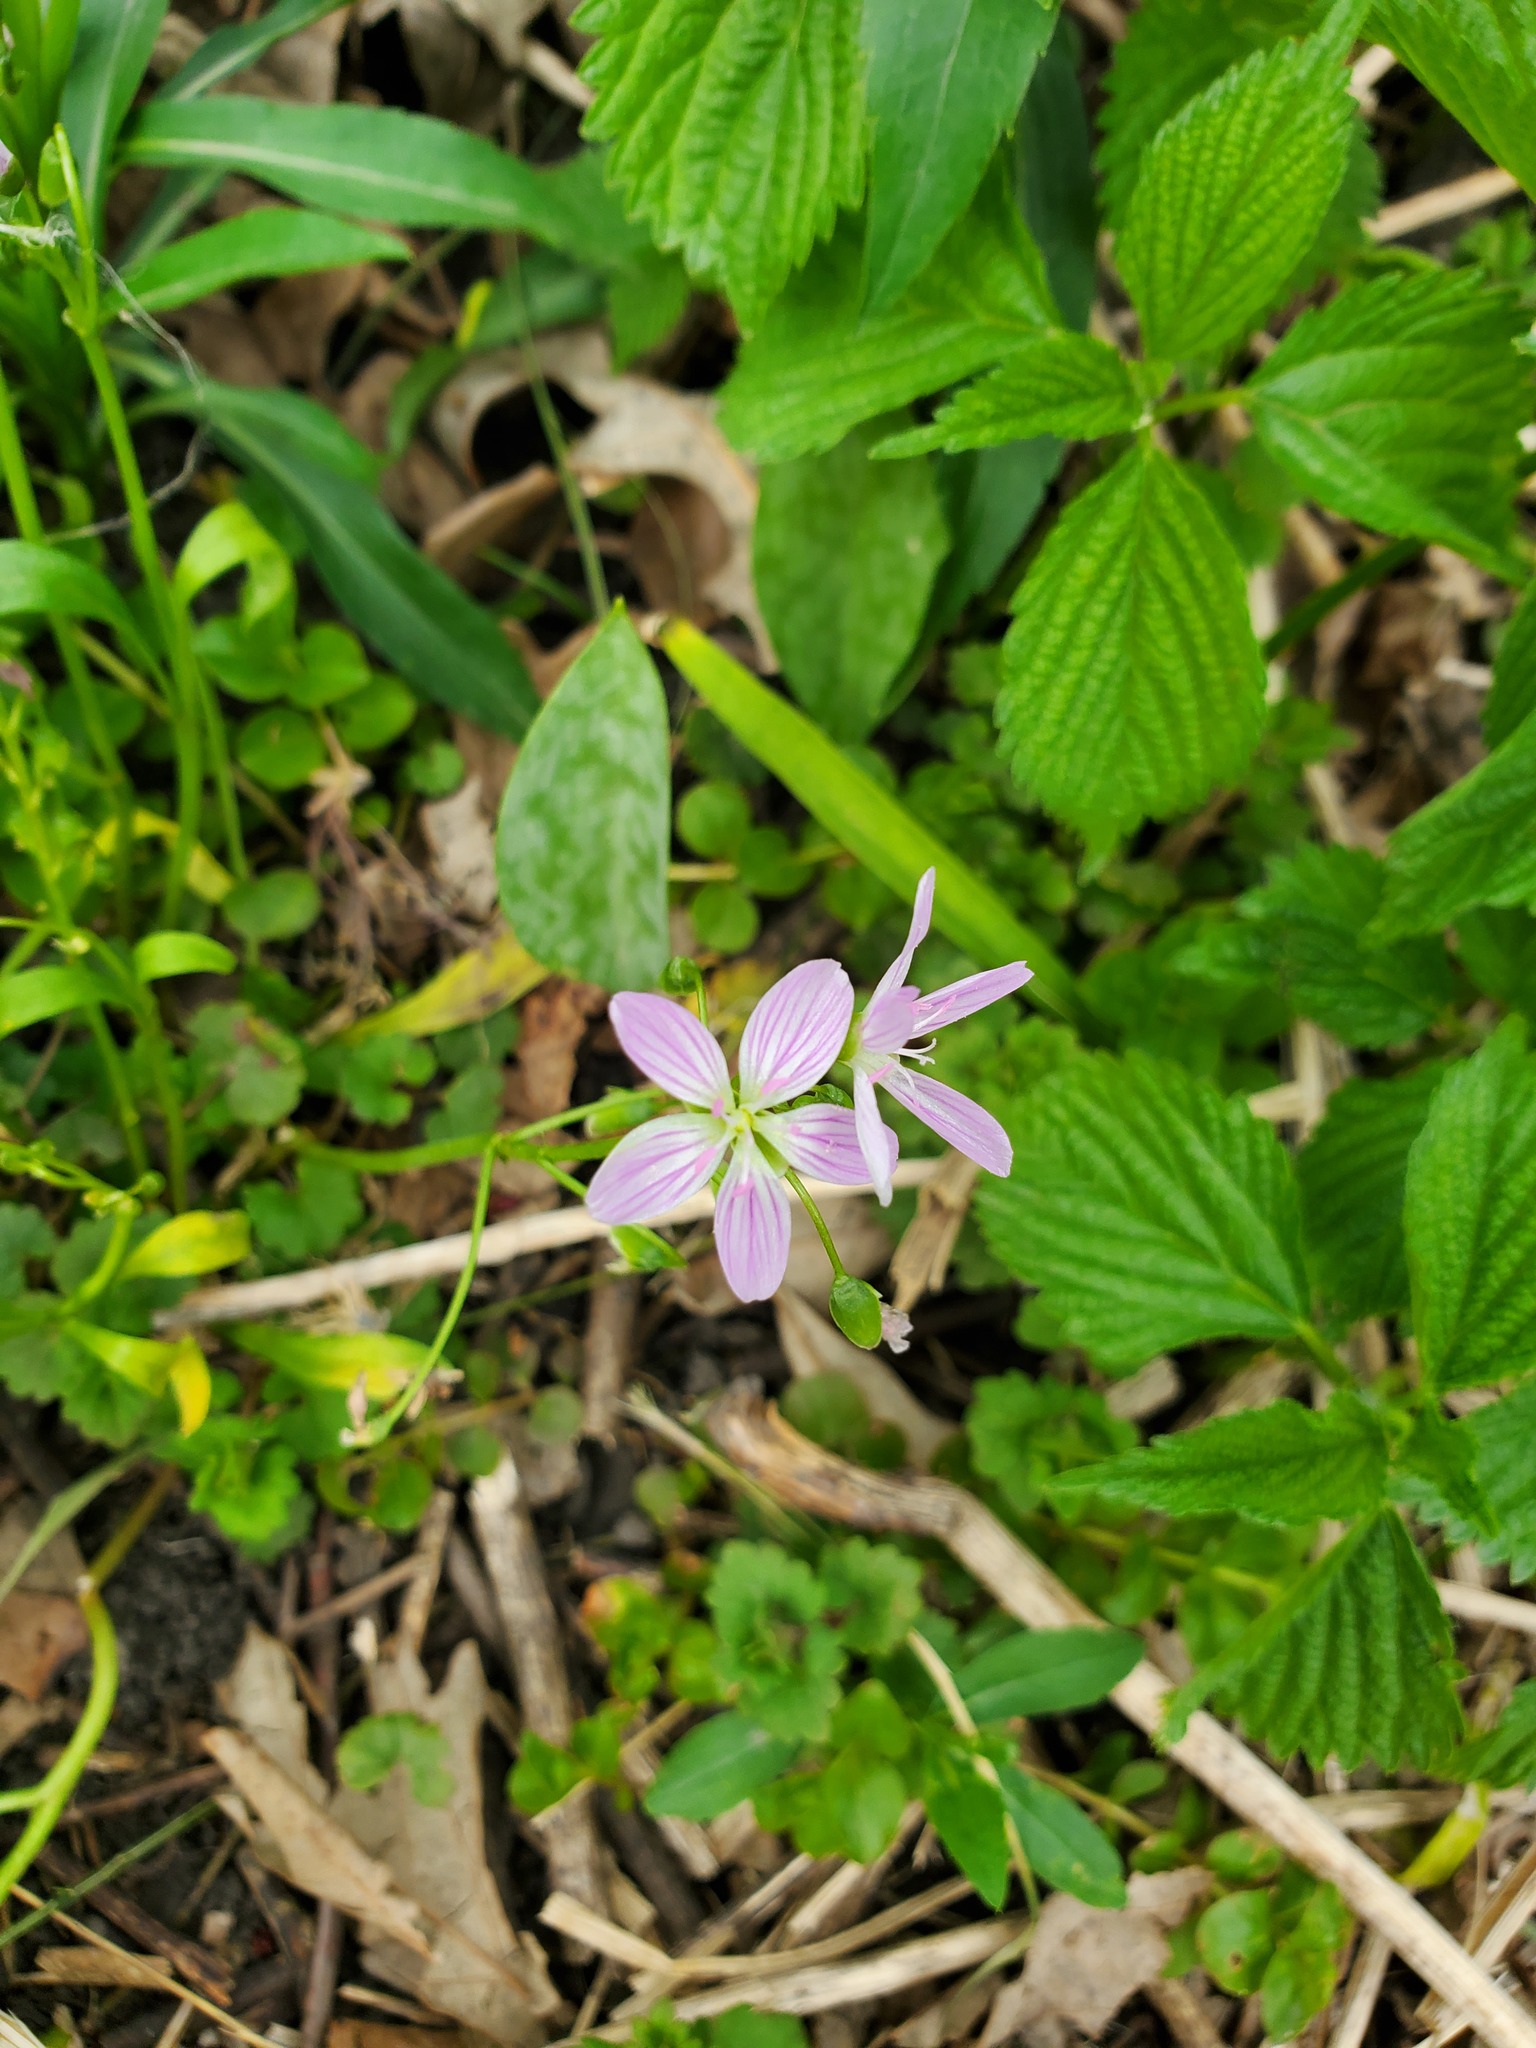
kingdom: Plantae
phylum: Tracheophyta
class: Magnoliopsida
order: Caryophyllales
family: Montiaceae
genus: Claytonia
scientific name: Claytonia virginica
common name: Virginia springbeauty
